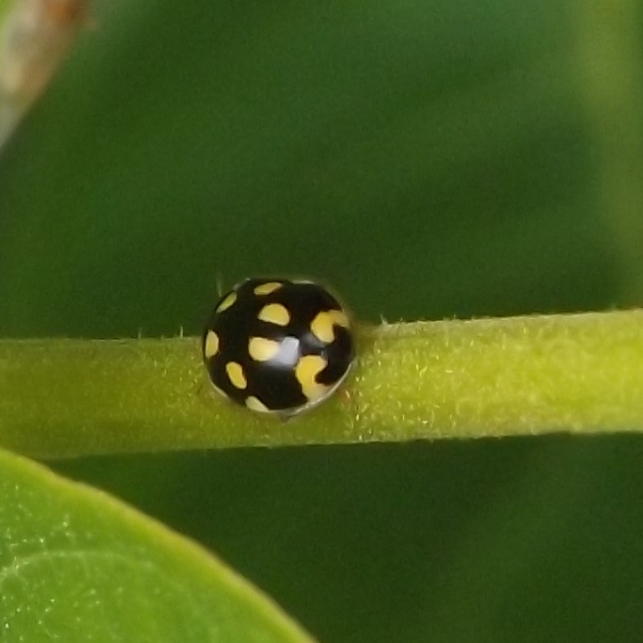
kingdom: Animalia
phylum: Arthropoda
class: Insecta
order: Coleoptera
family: Coccinellidae
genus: Propylaea
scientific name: Propylaea quatuordecimpunctata
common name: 14-spotted ladybird beetle
